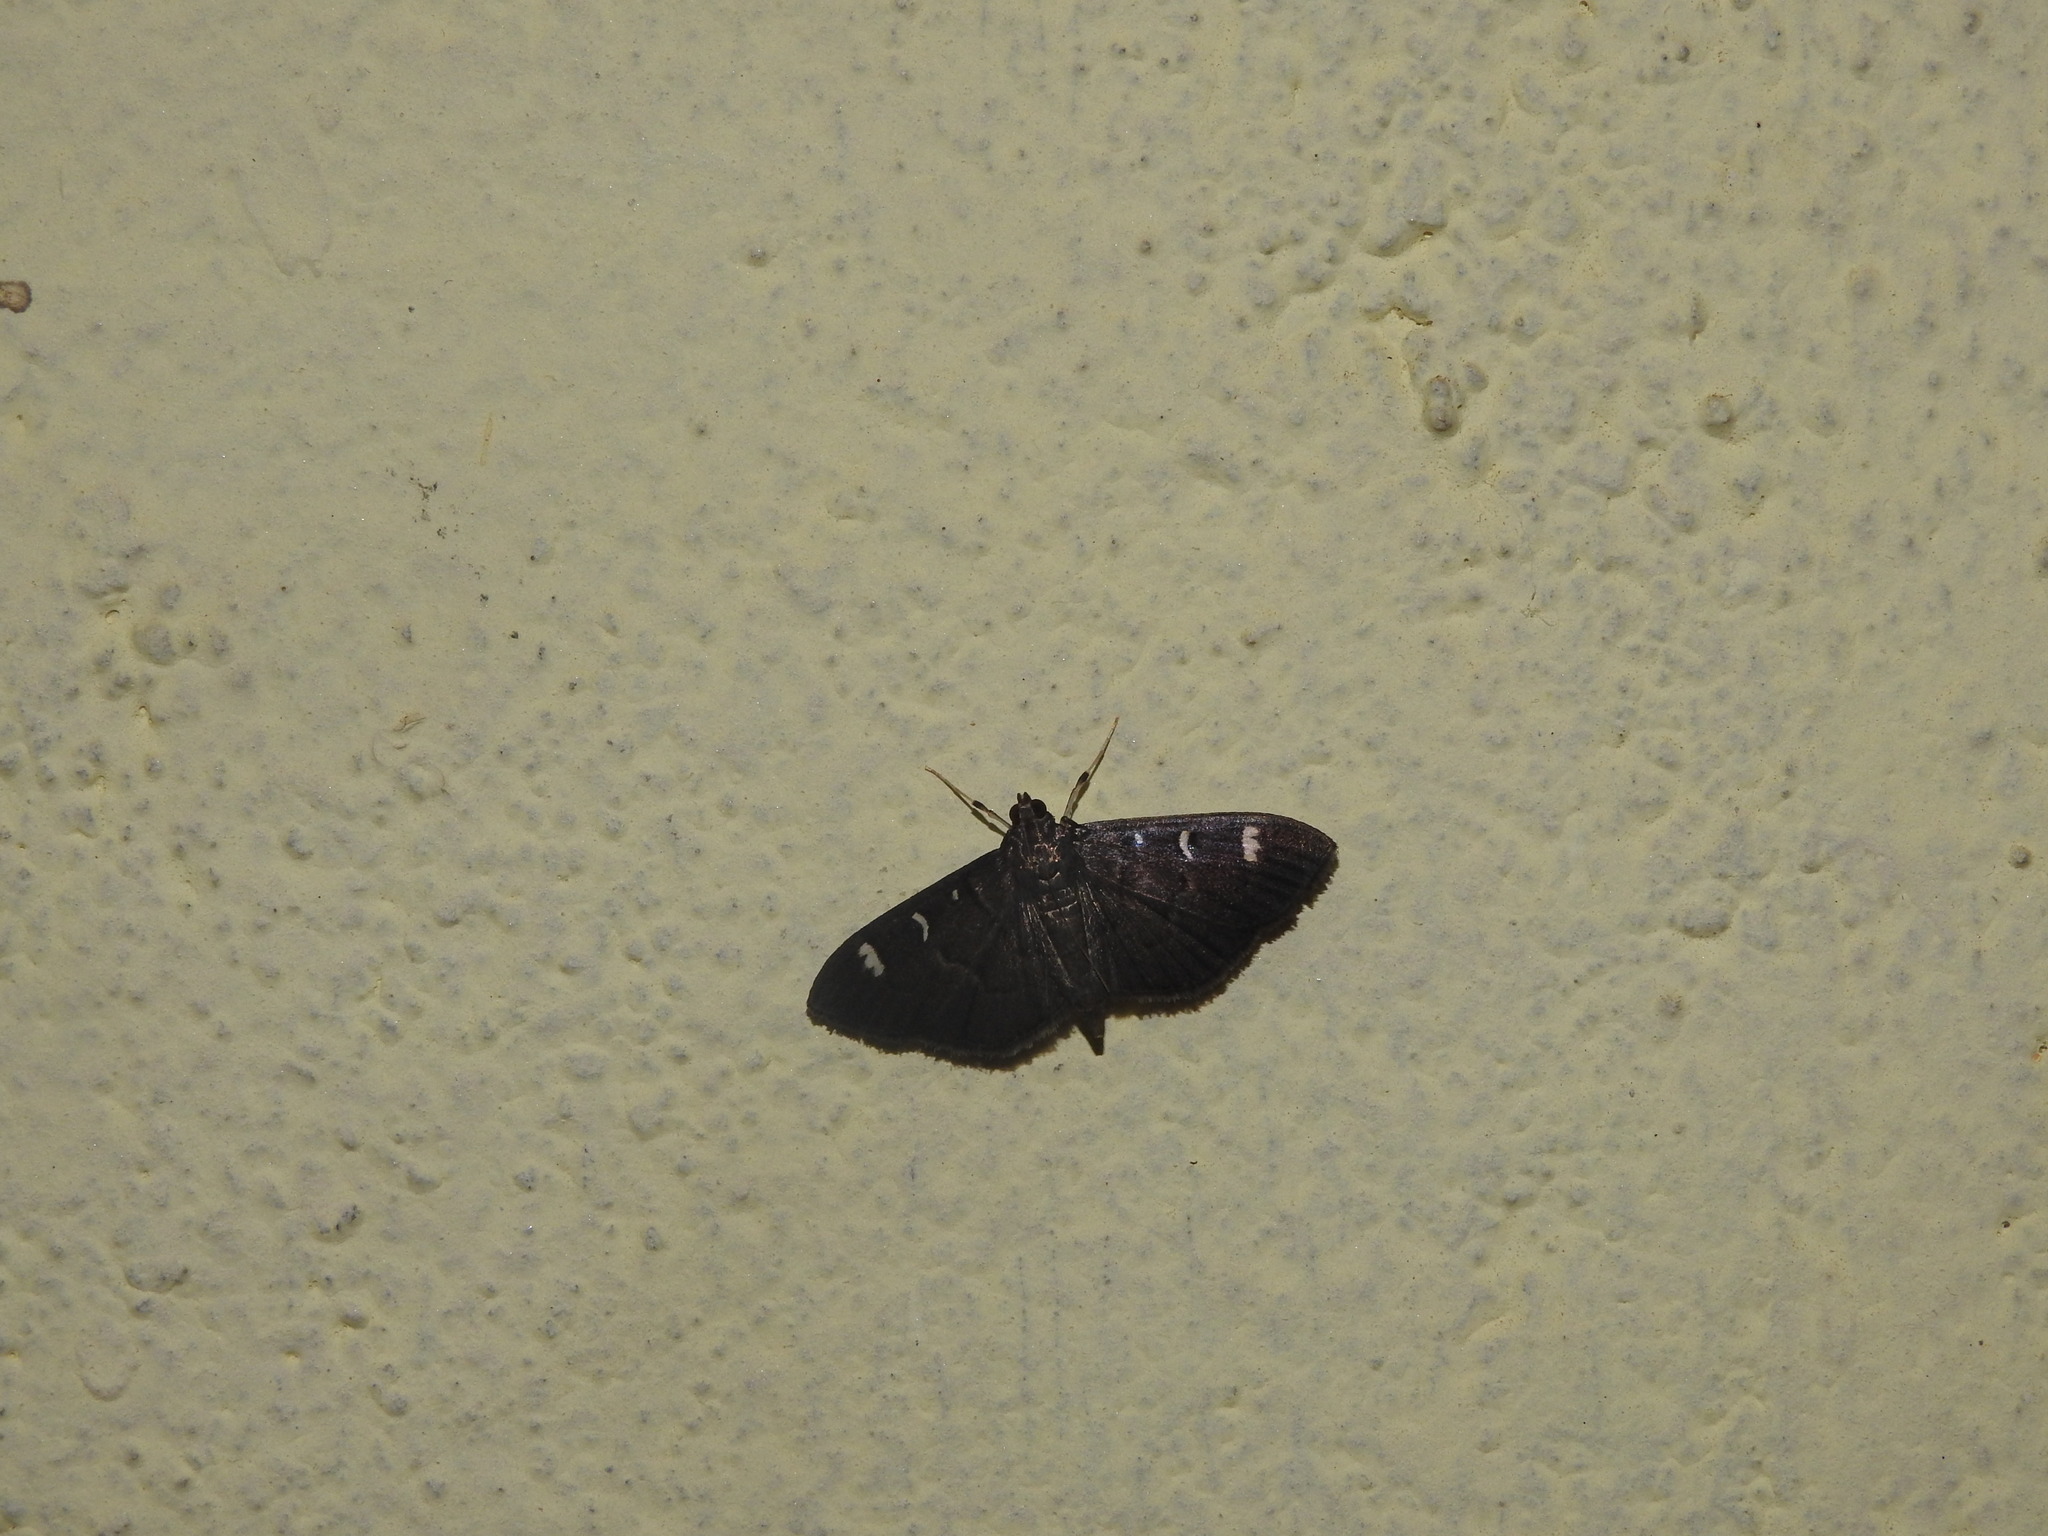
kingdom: Animalia
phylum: Arthropoda
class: Insecta
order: Lepidoptera
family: Crambidae
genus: Syllepte
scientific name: Syllepte adductalis
